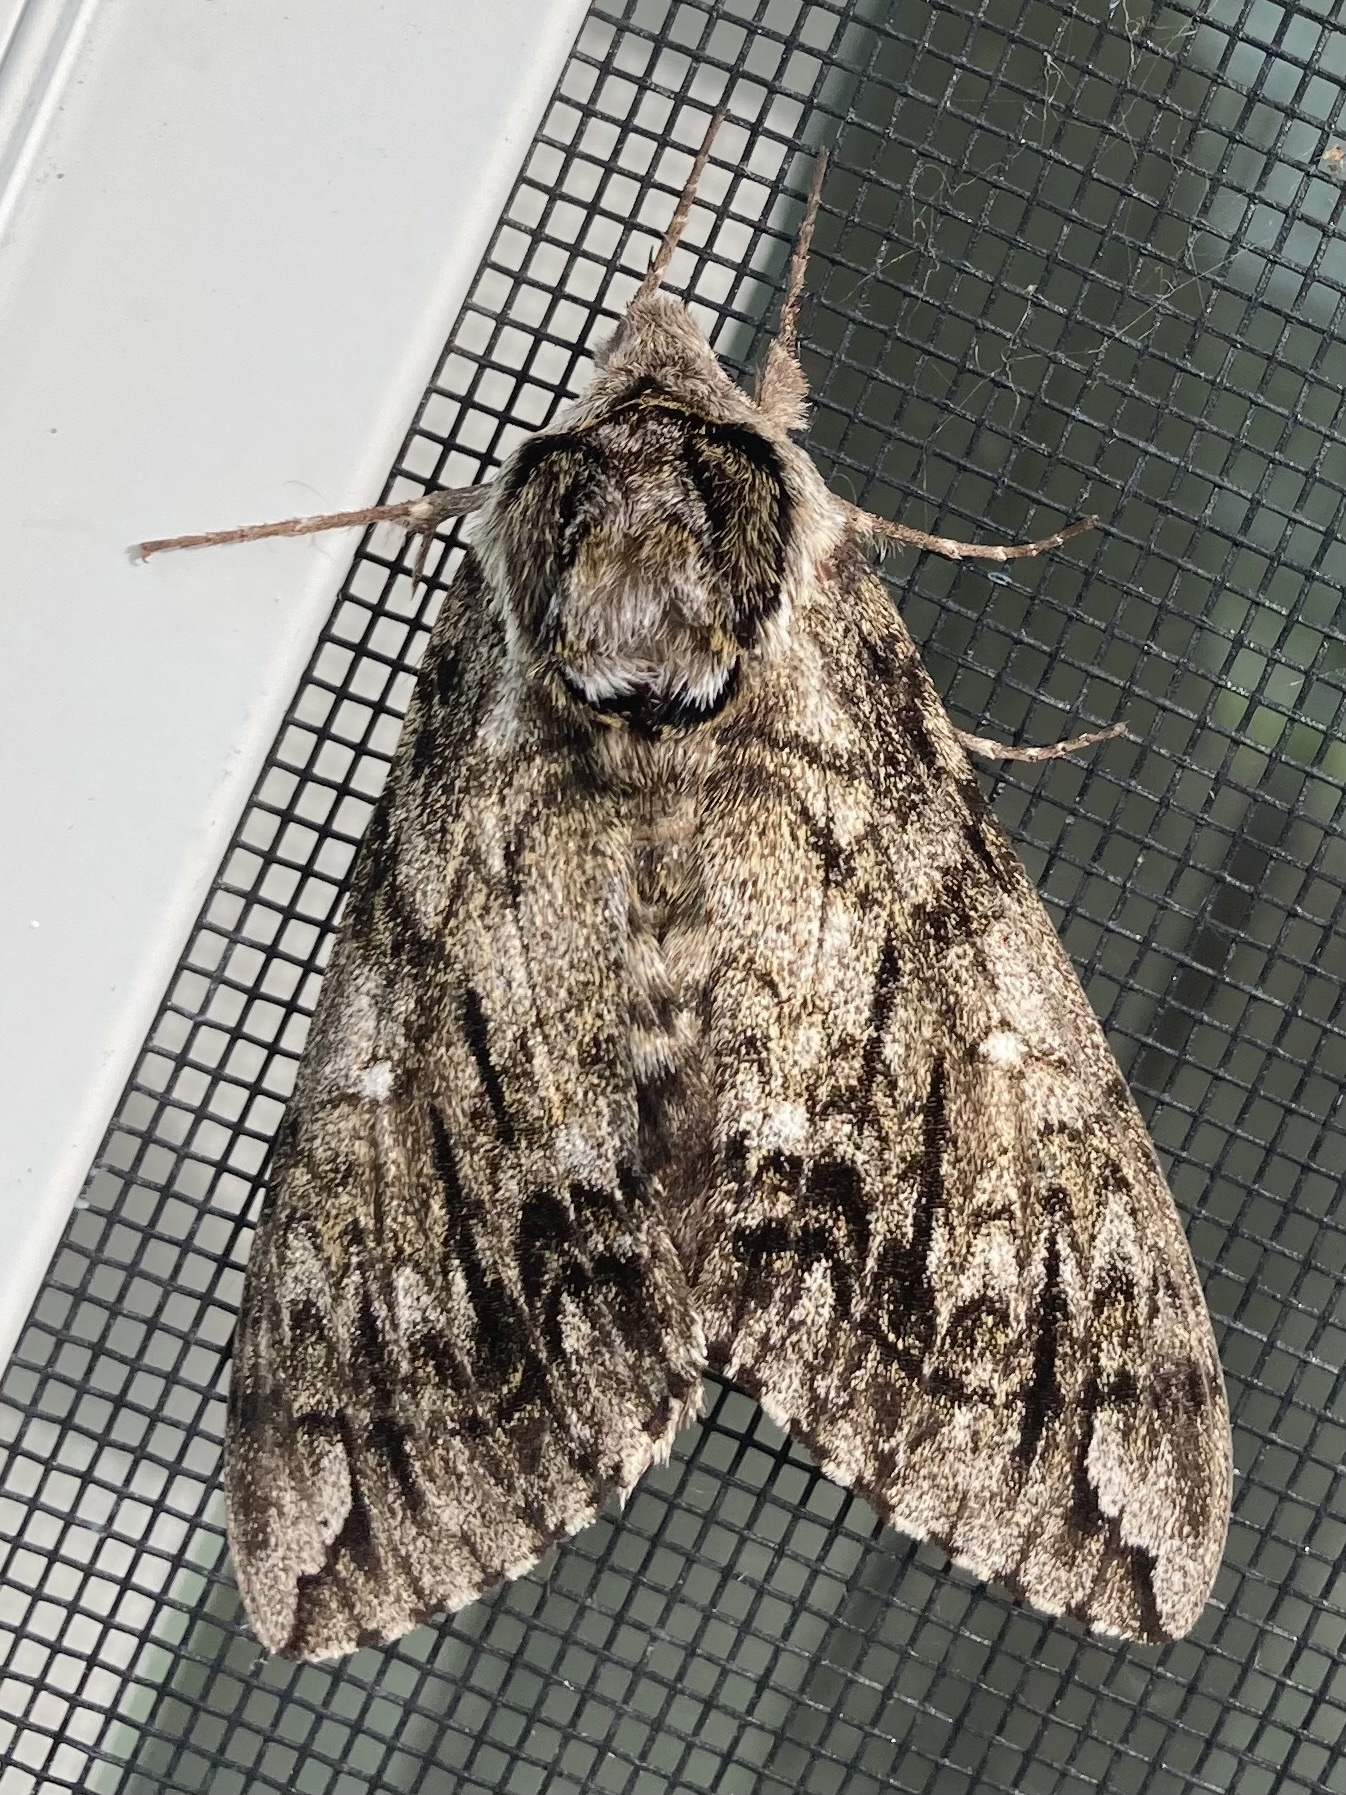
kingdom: Animalia
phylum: Arthropoda
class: Insecta
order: Lepidoptera
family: Sphingidae
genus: Ceratomia
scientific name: Ceratomia undulosa
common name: Waved sphinx
